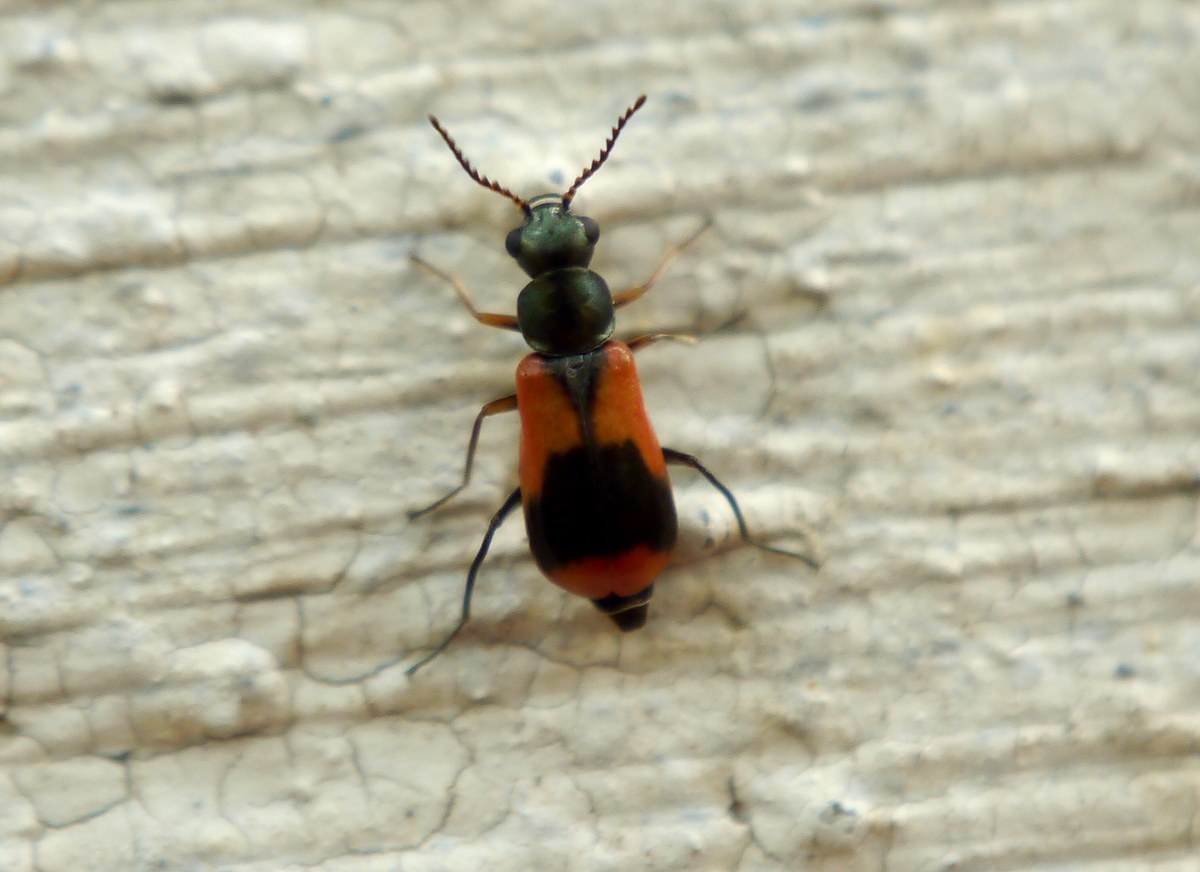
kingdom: Animalia
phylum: Arthropoda
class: Insecta
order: Coleoptera
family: Melyridae
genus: Anthocomus
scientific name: Anthocomus equestris
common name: Black-banded soft-winged flower beetle
